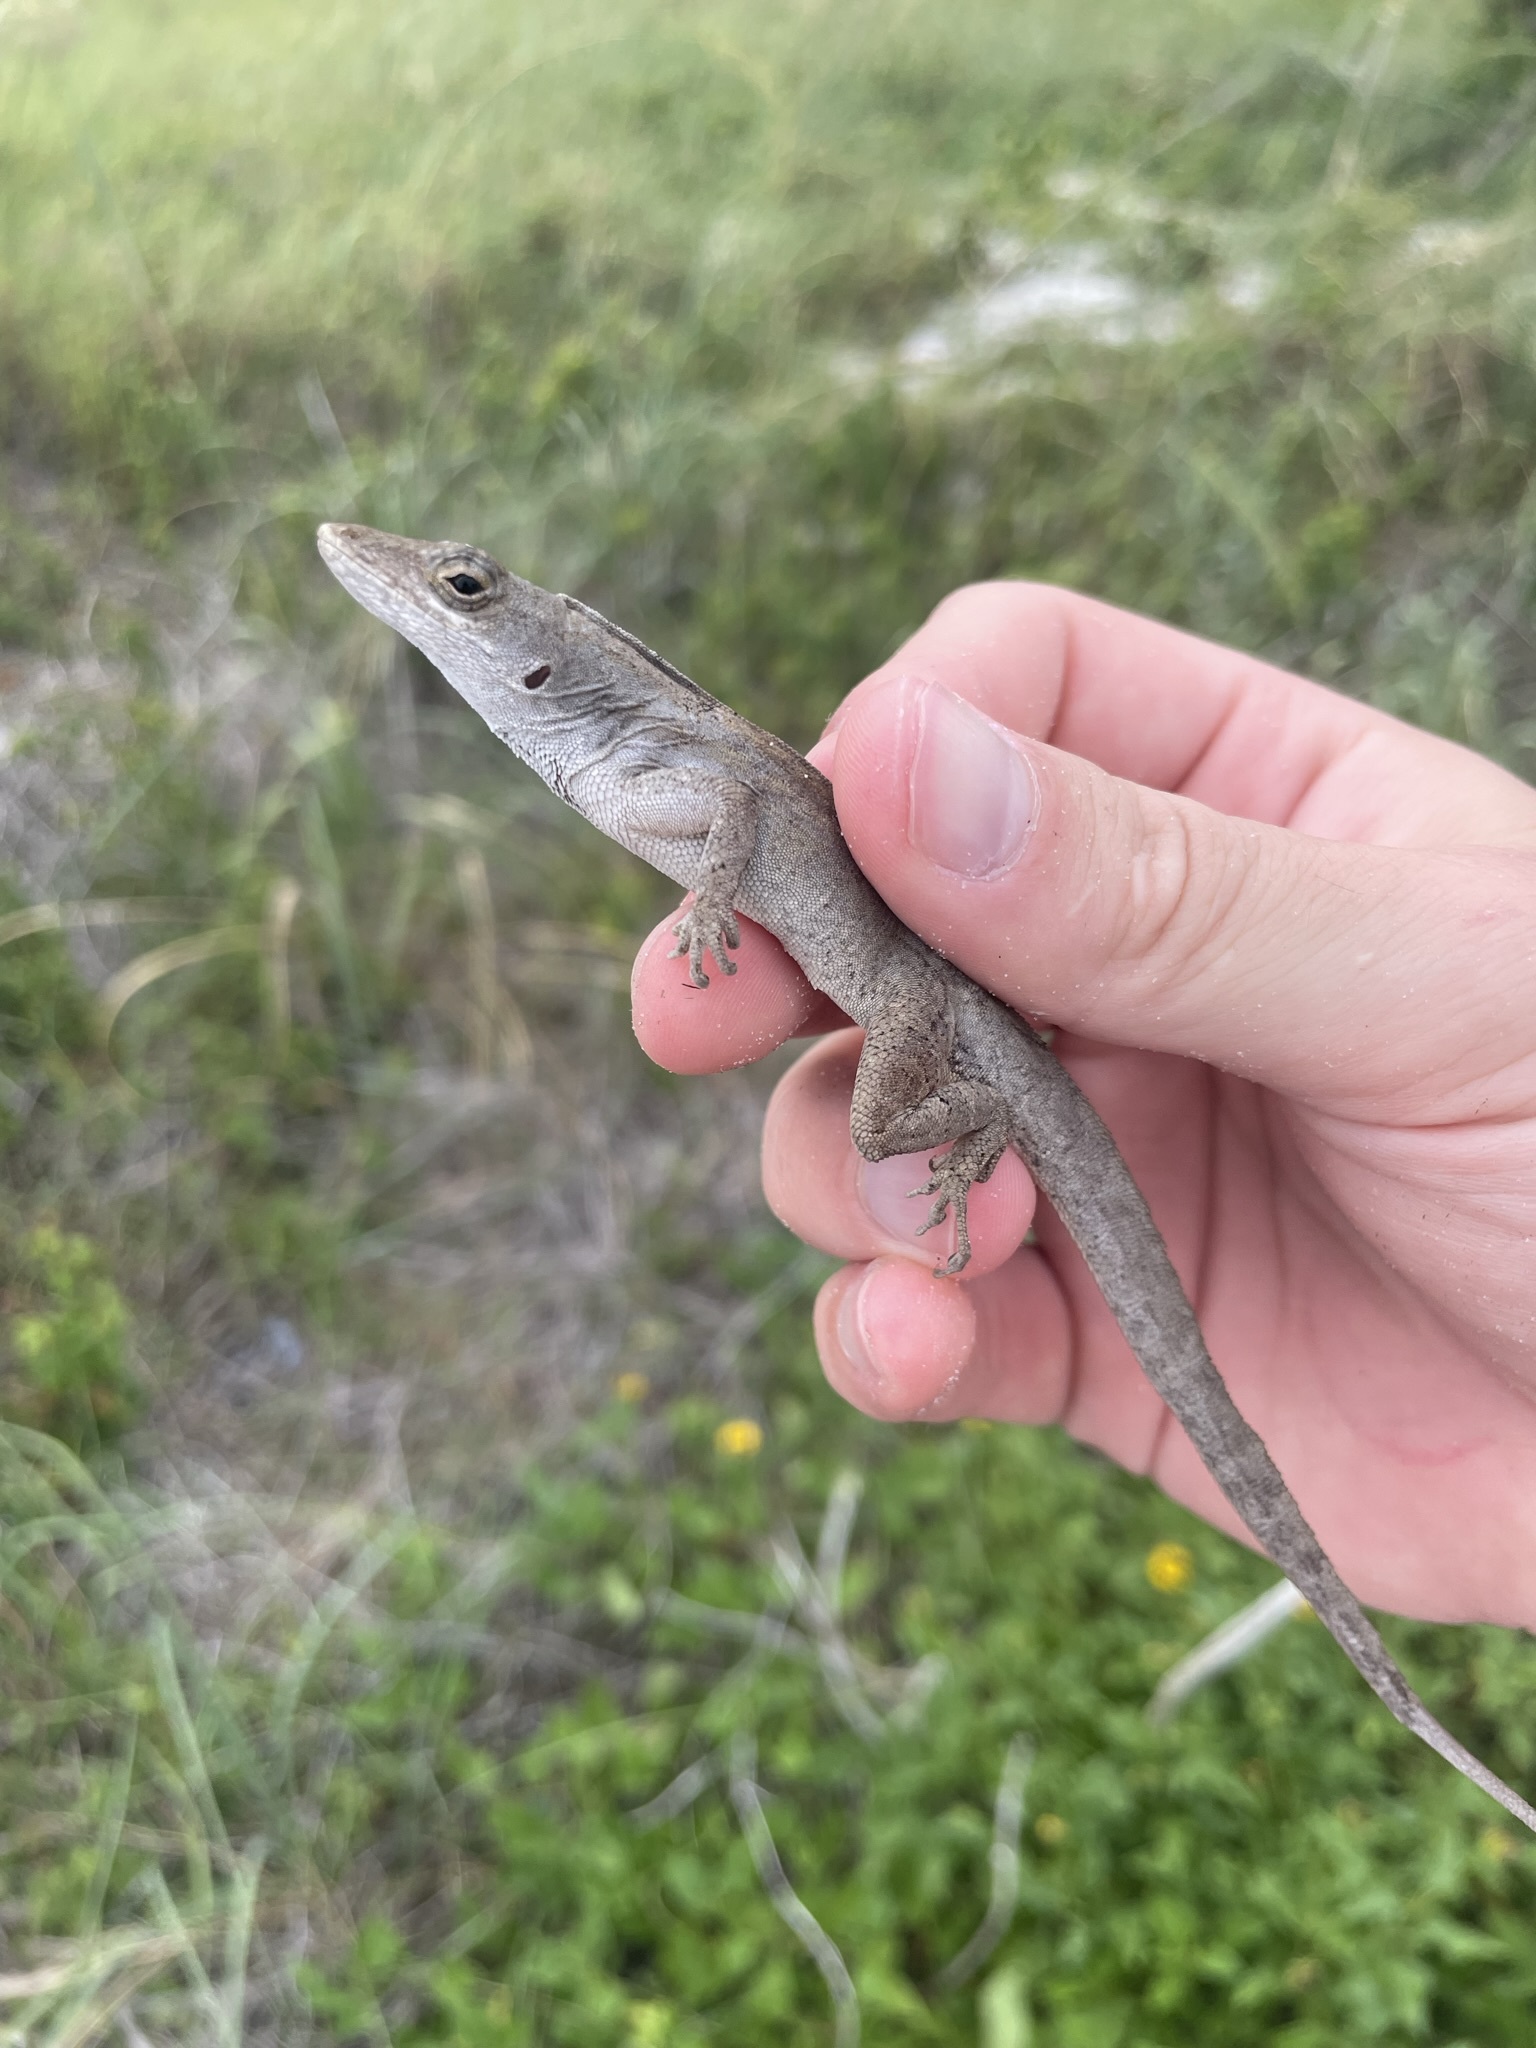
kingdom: Animalia
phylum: Chordata
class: Squamata
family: Dactyloidae
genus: Anolis
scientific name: Anolis sagrei
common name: Brown anole
